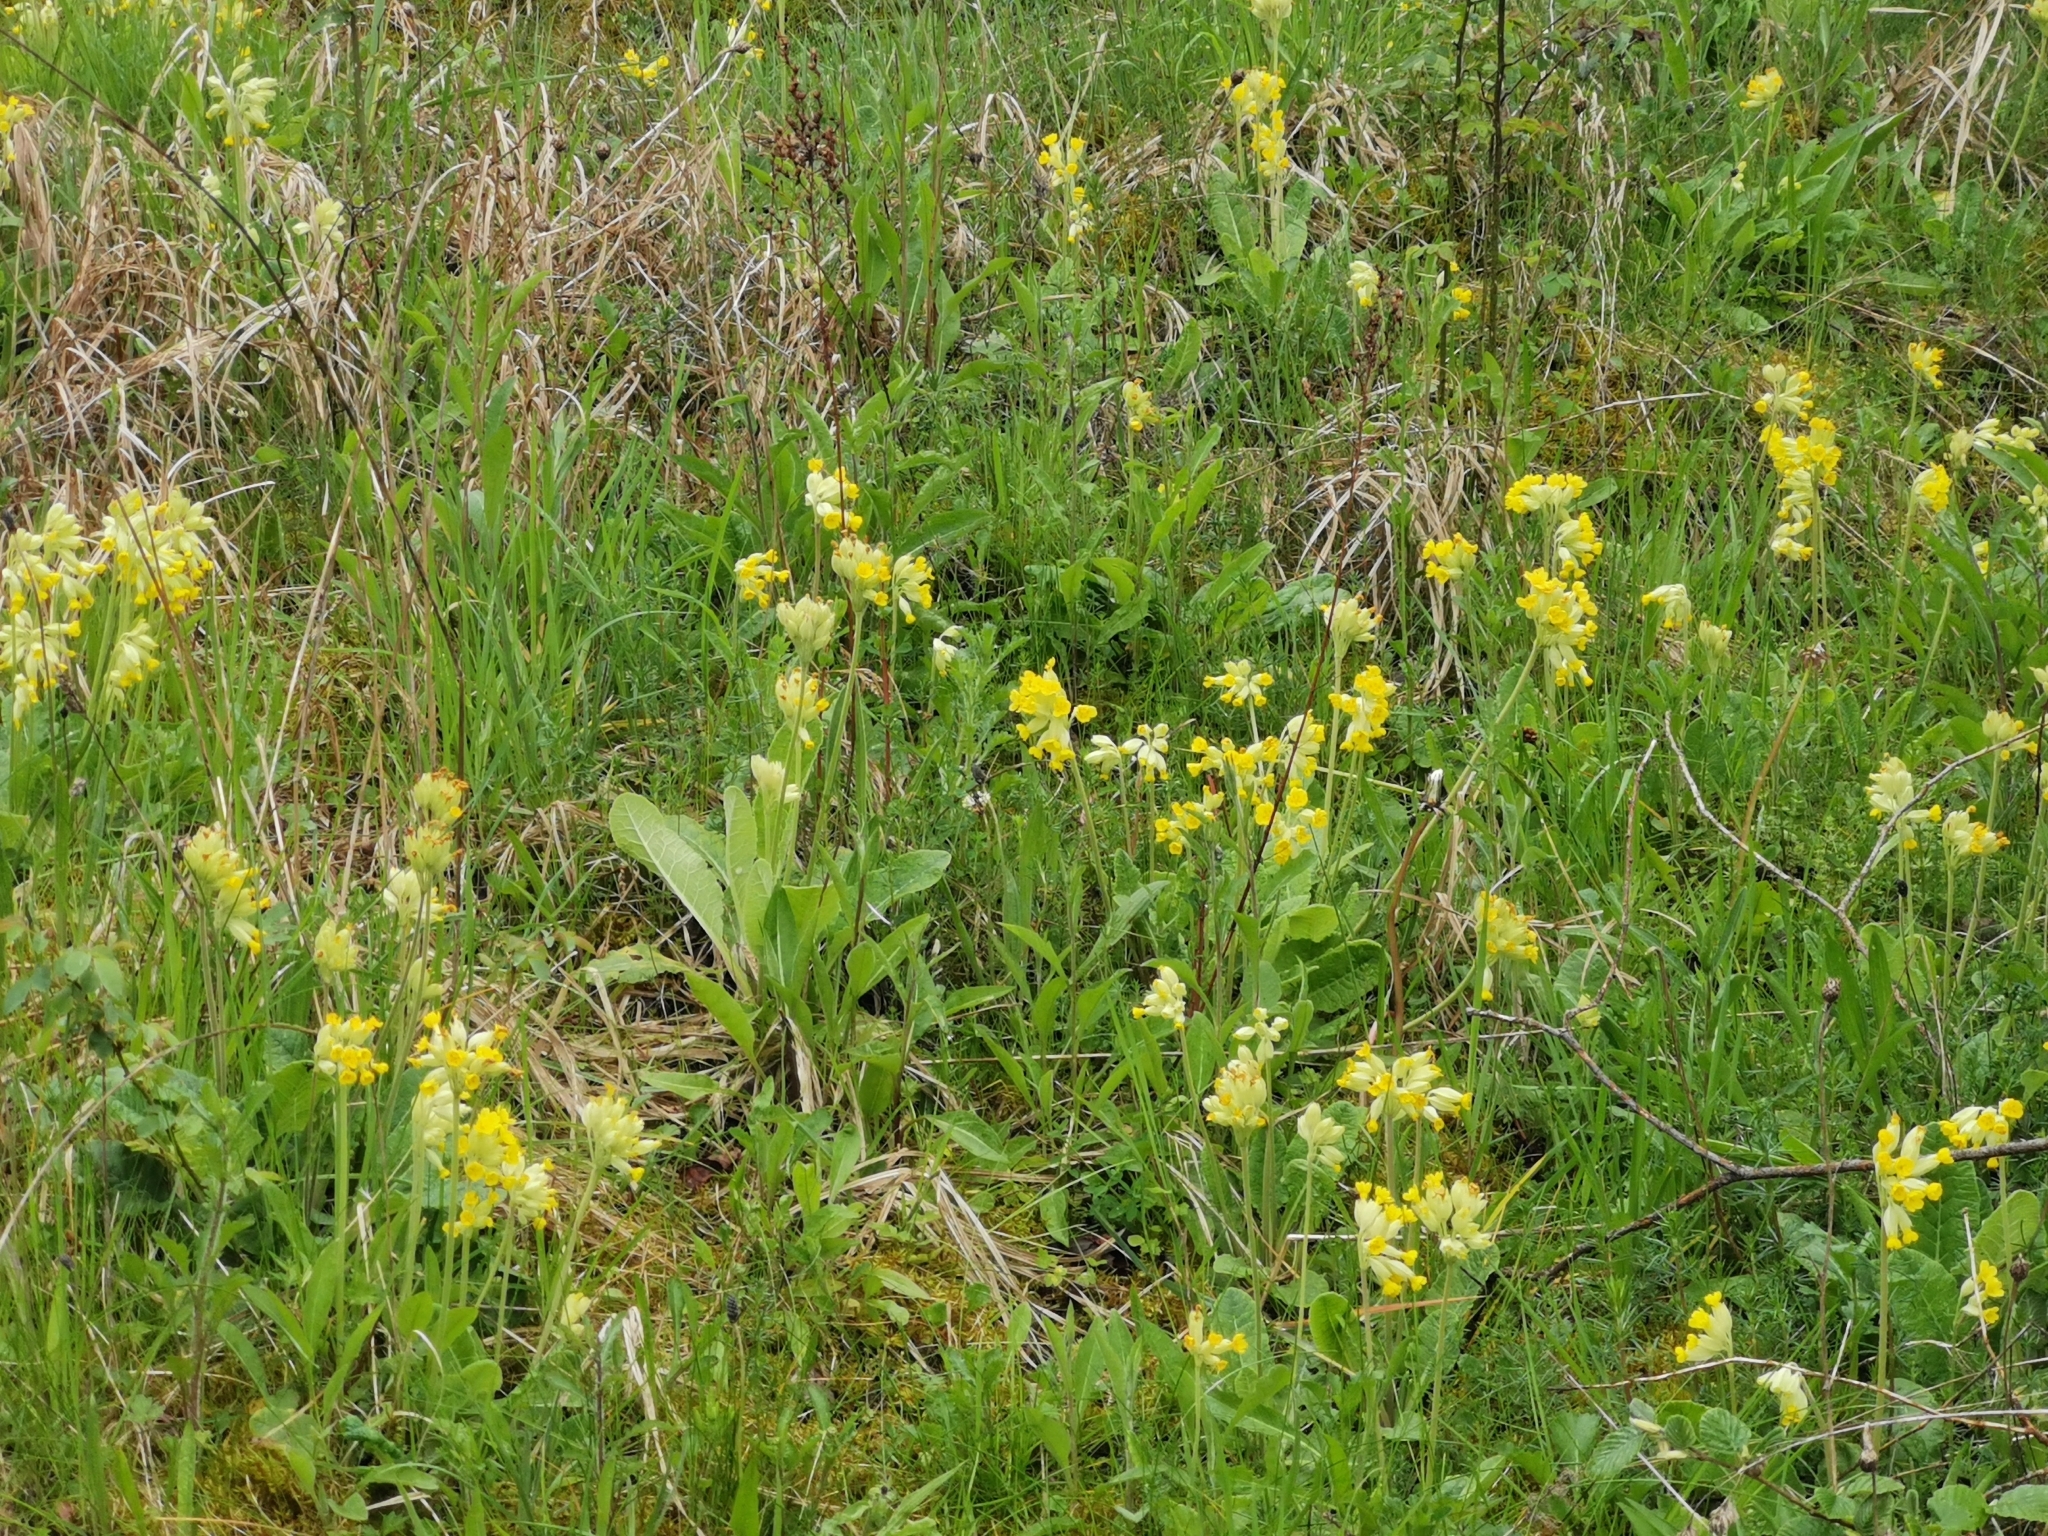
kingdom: Plantae
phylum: Tracheophyta
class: Magnoliopsida
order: Ericales
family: Primulaceae
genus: Primula
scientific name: Primula veris
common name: Cowslip
